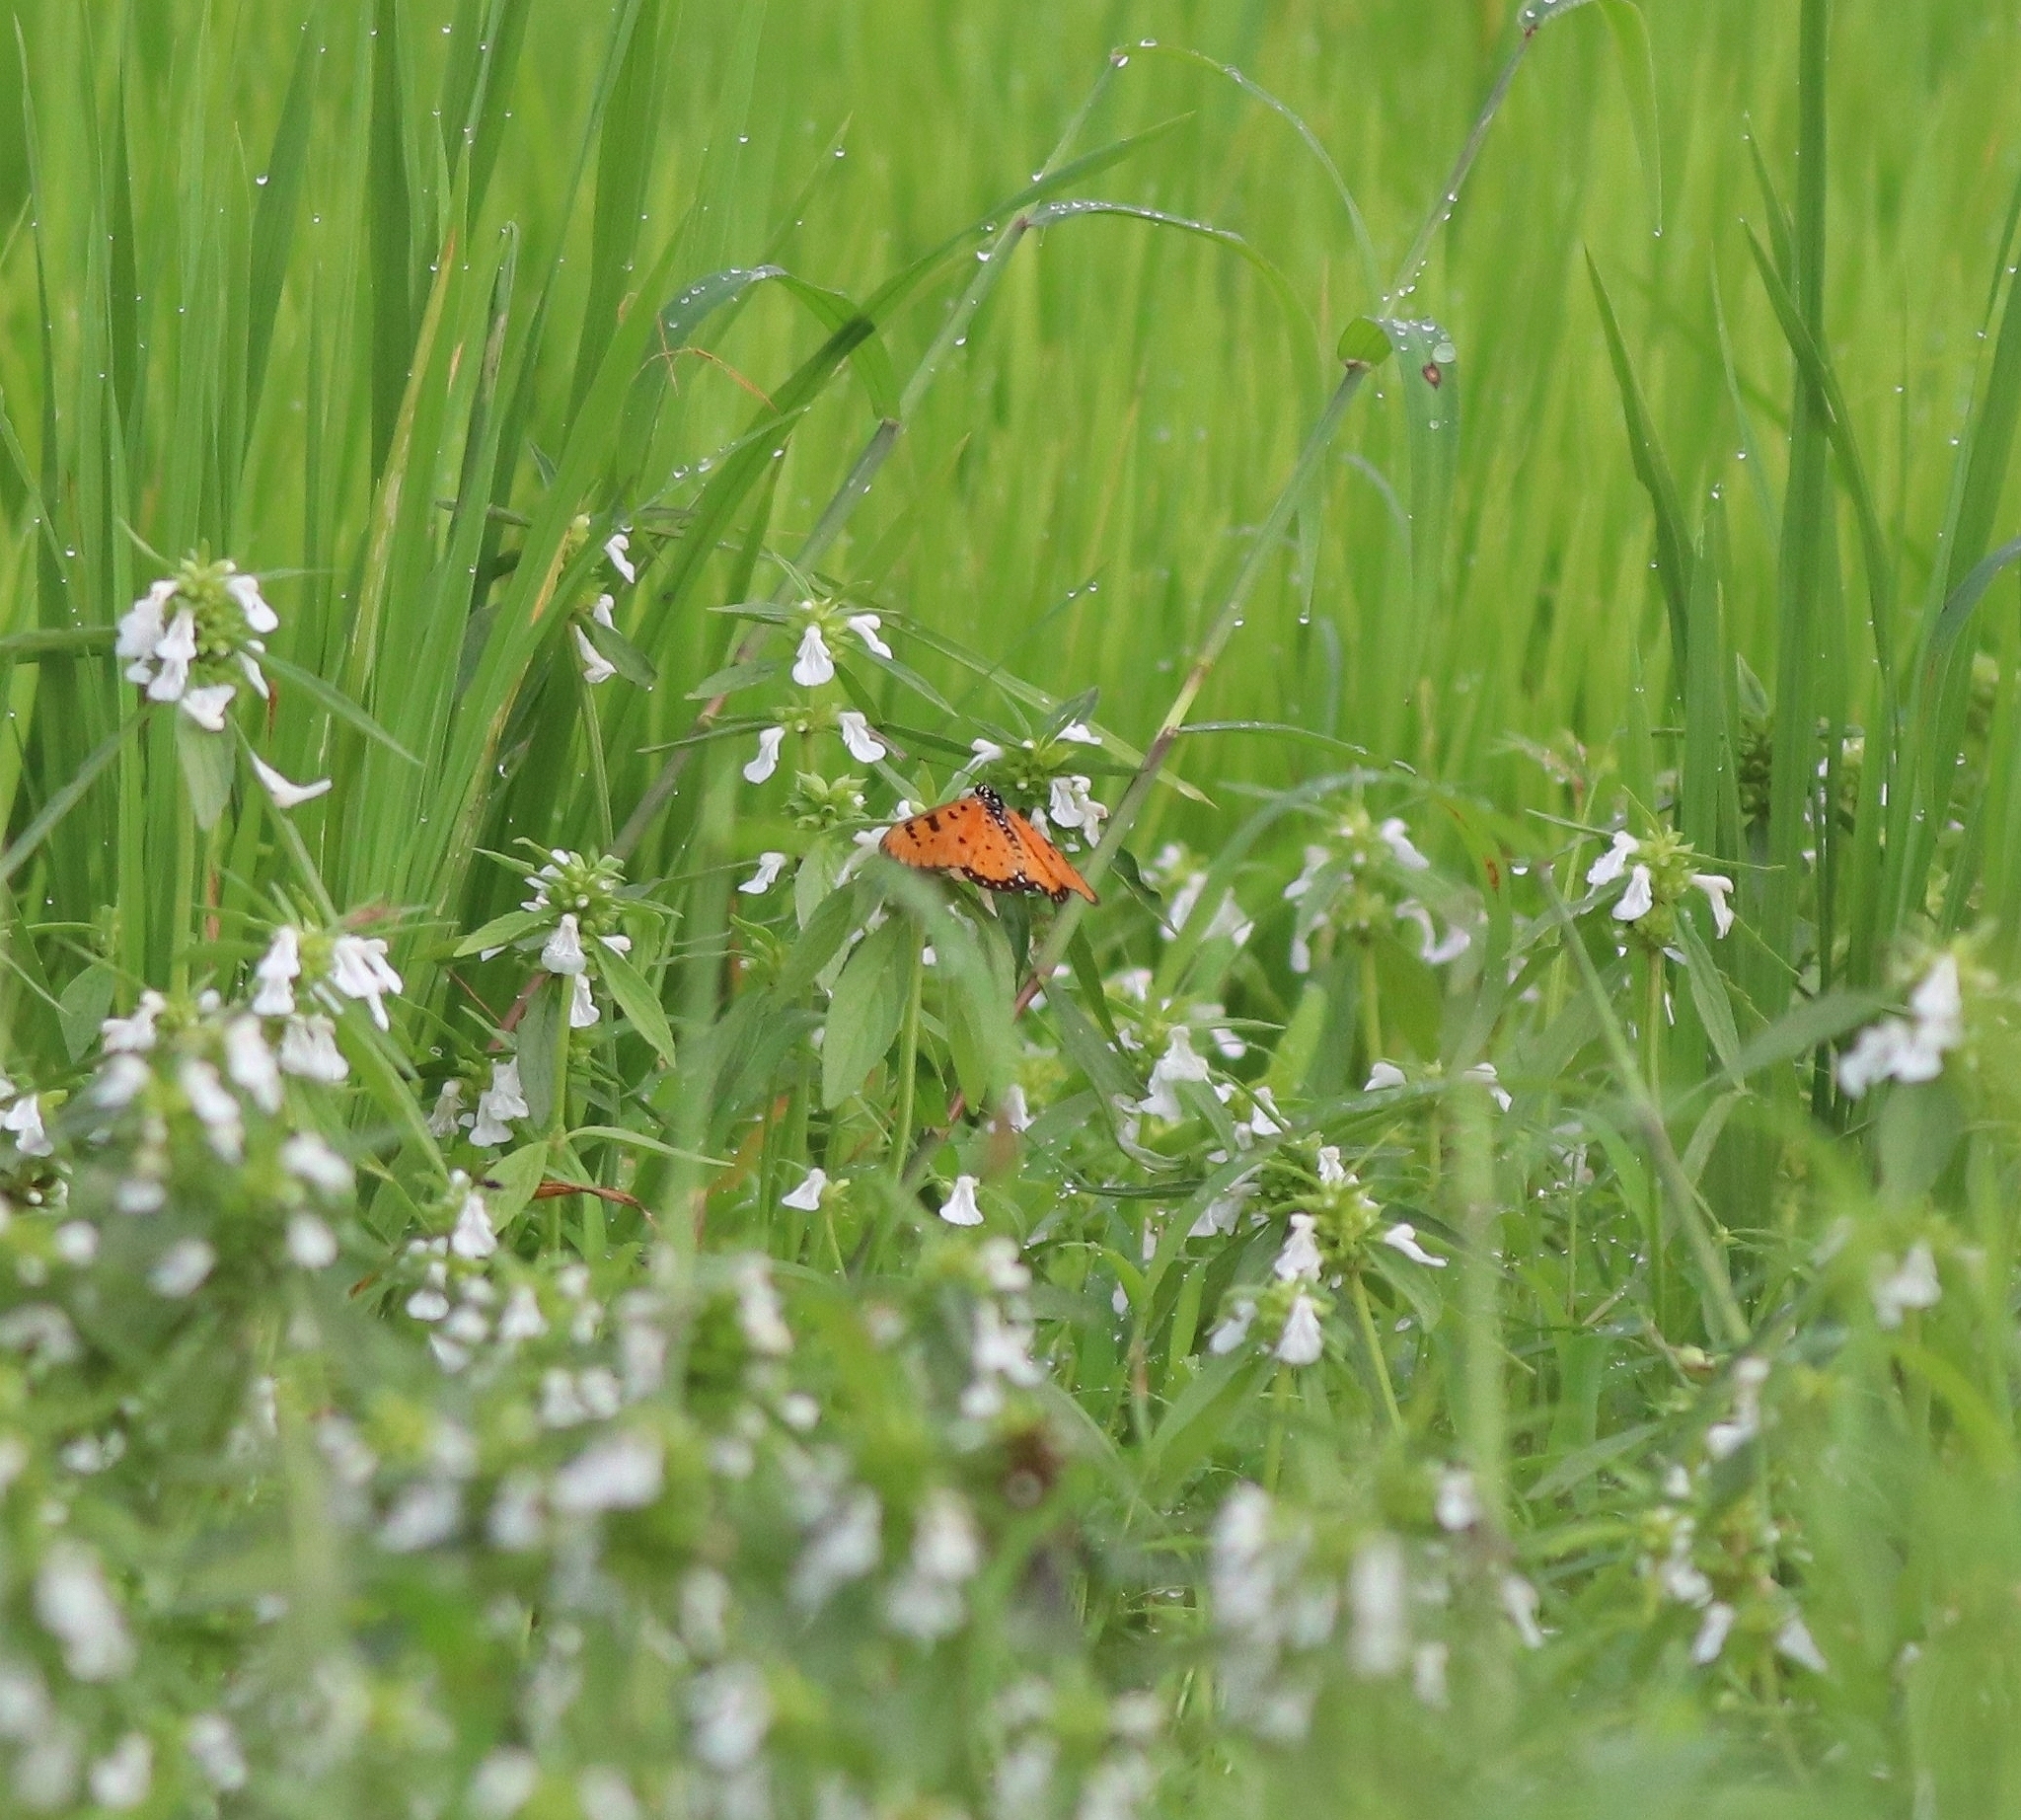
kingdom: Animalia
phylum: Arthropoda
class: Insecta
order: Lepidoptera
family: Nymphalidae
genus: Acraea
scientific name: Acraea terpsicore
